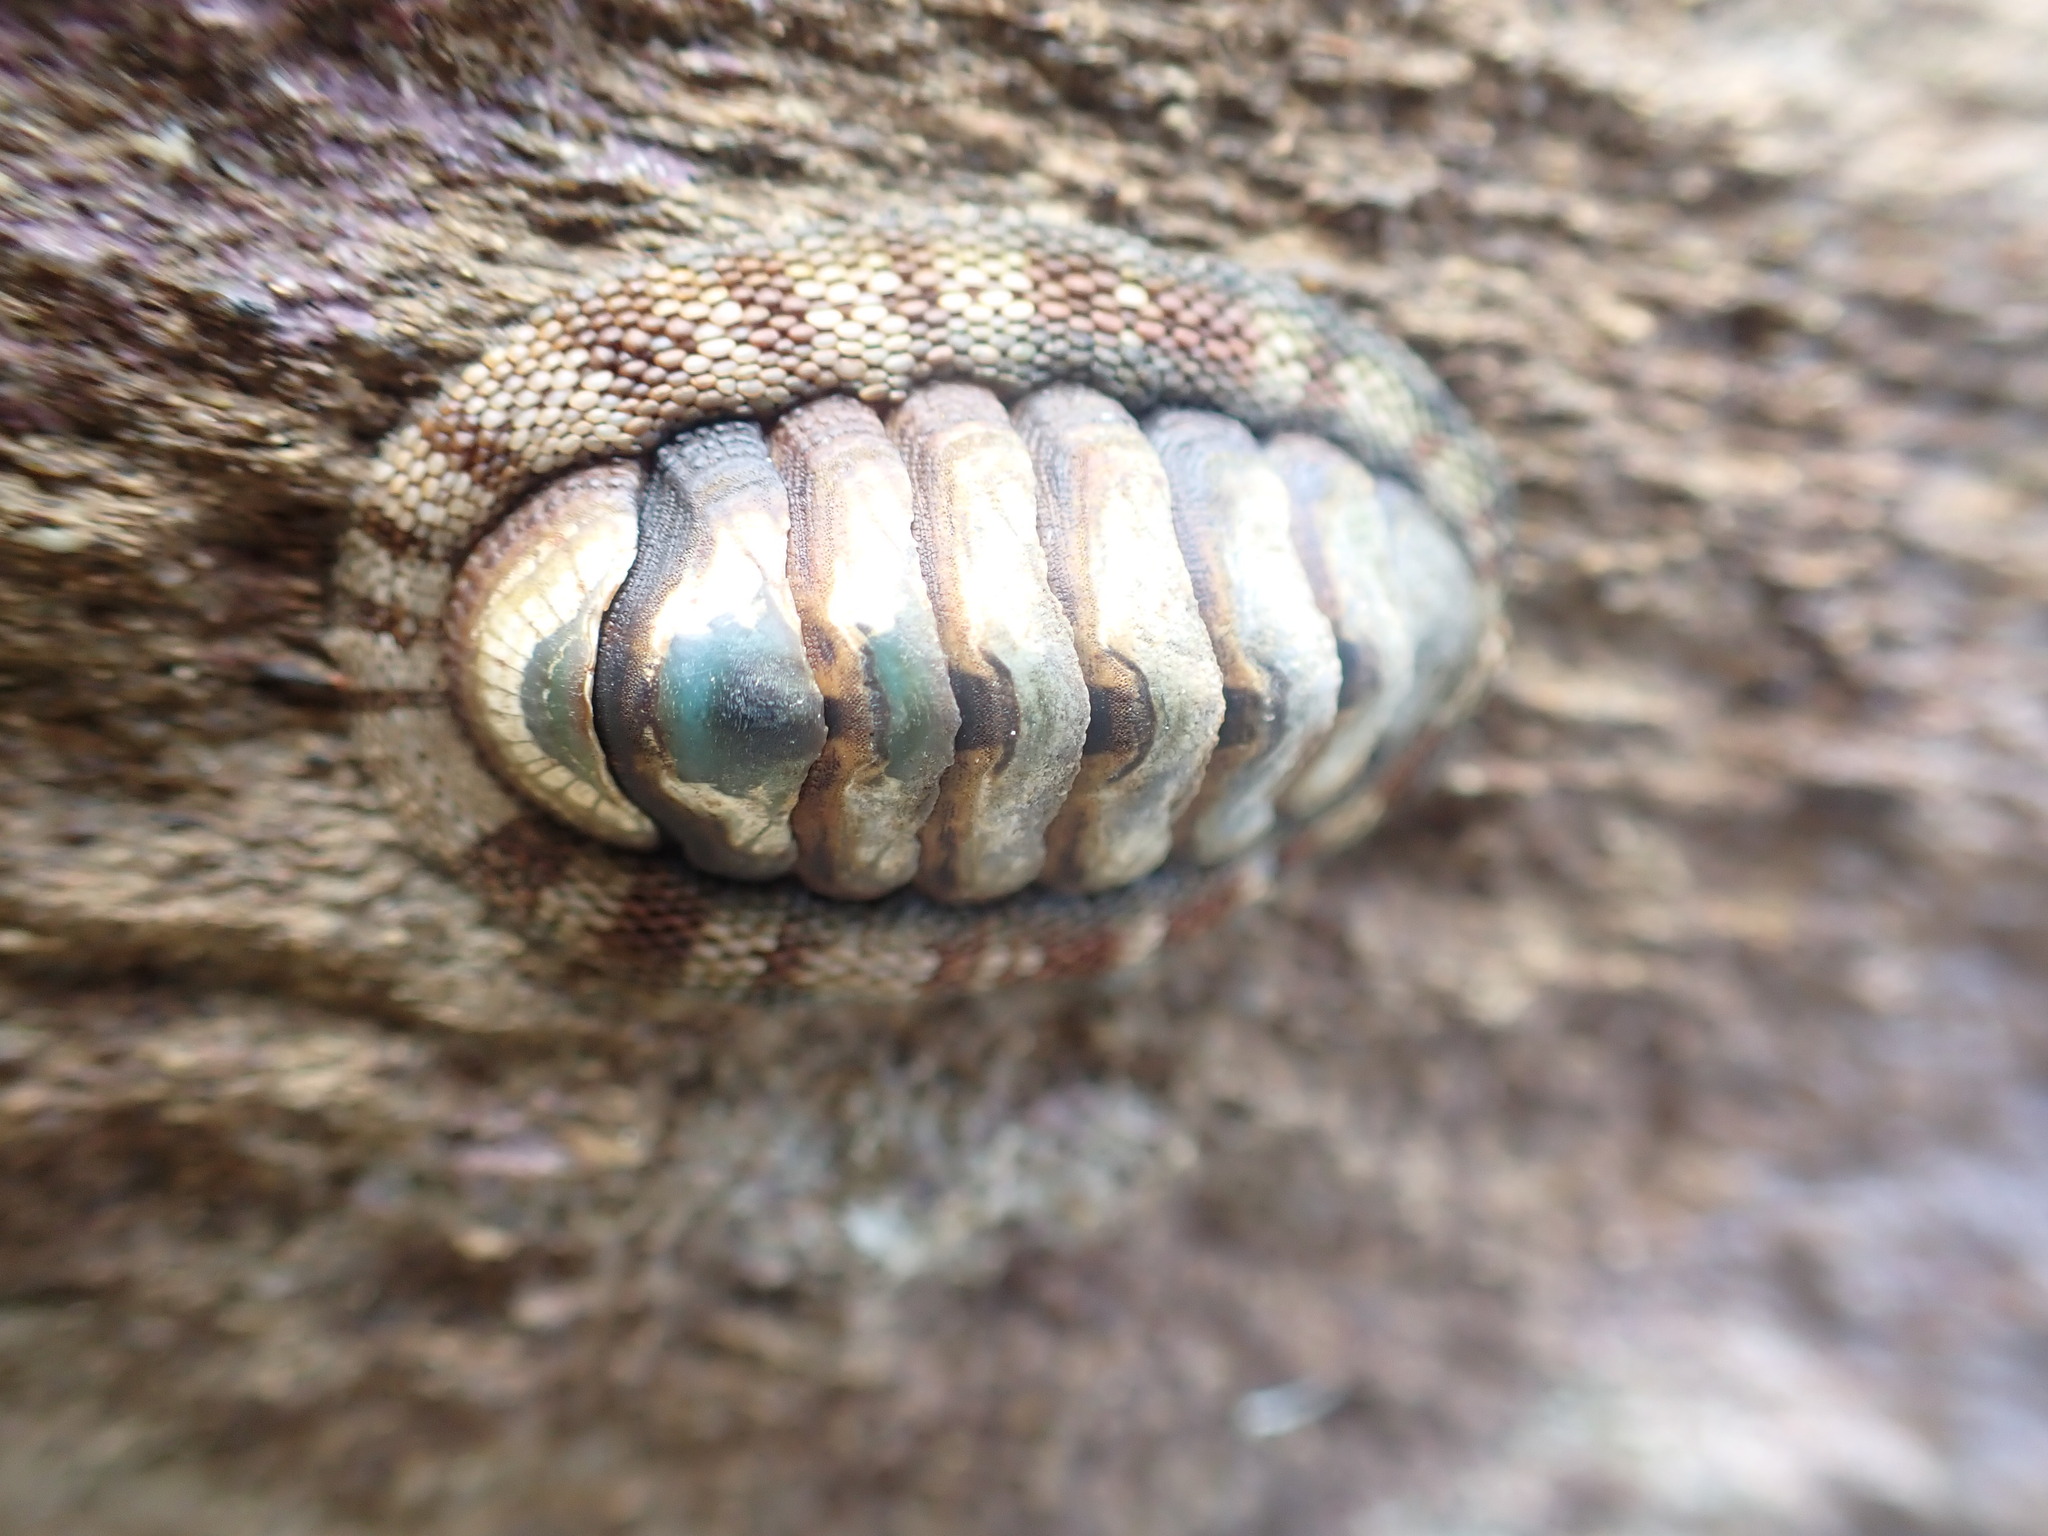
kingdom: Animalia
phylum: Mollusca
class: Polyplacophora
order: Chitonida
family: Chitonidae
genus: Sypharochiton
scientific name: Sypharochiton pelliserpentis
